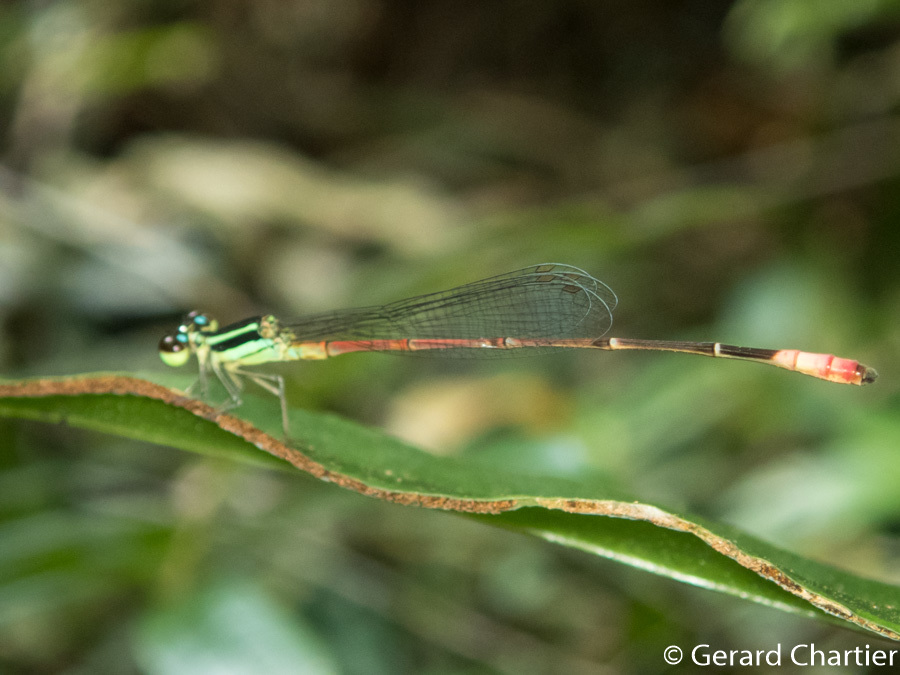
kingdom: Animalia
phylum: Arthropoda
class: Insecta
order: Odonata
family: Coenagrionidae
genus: Argiocnemis
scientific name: Argiocnemis rubescens
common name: Red-tipped shadefly
